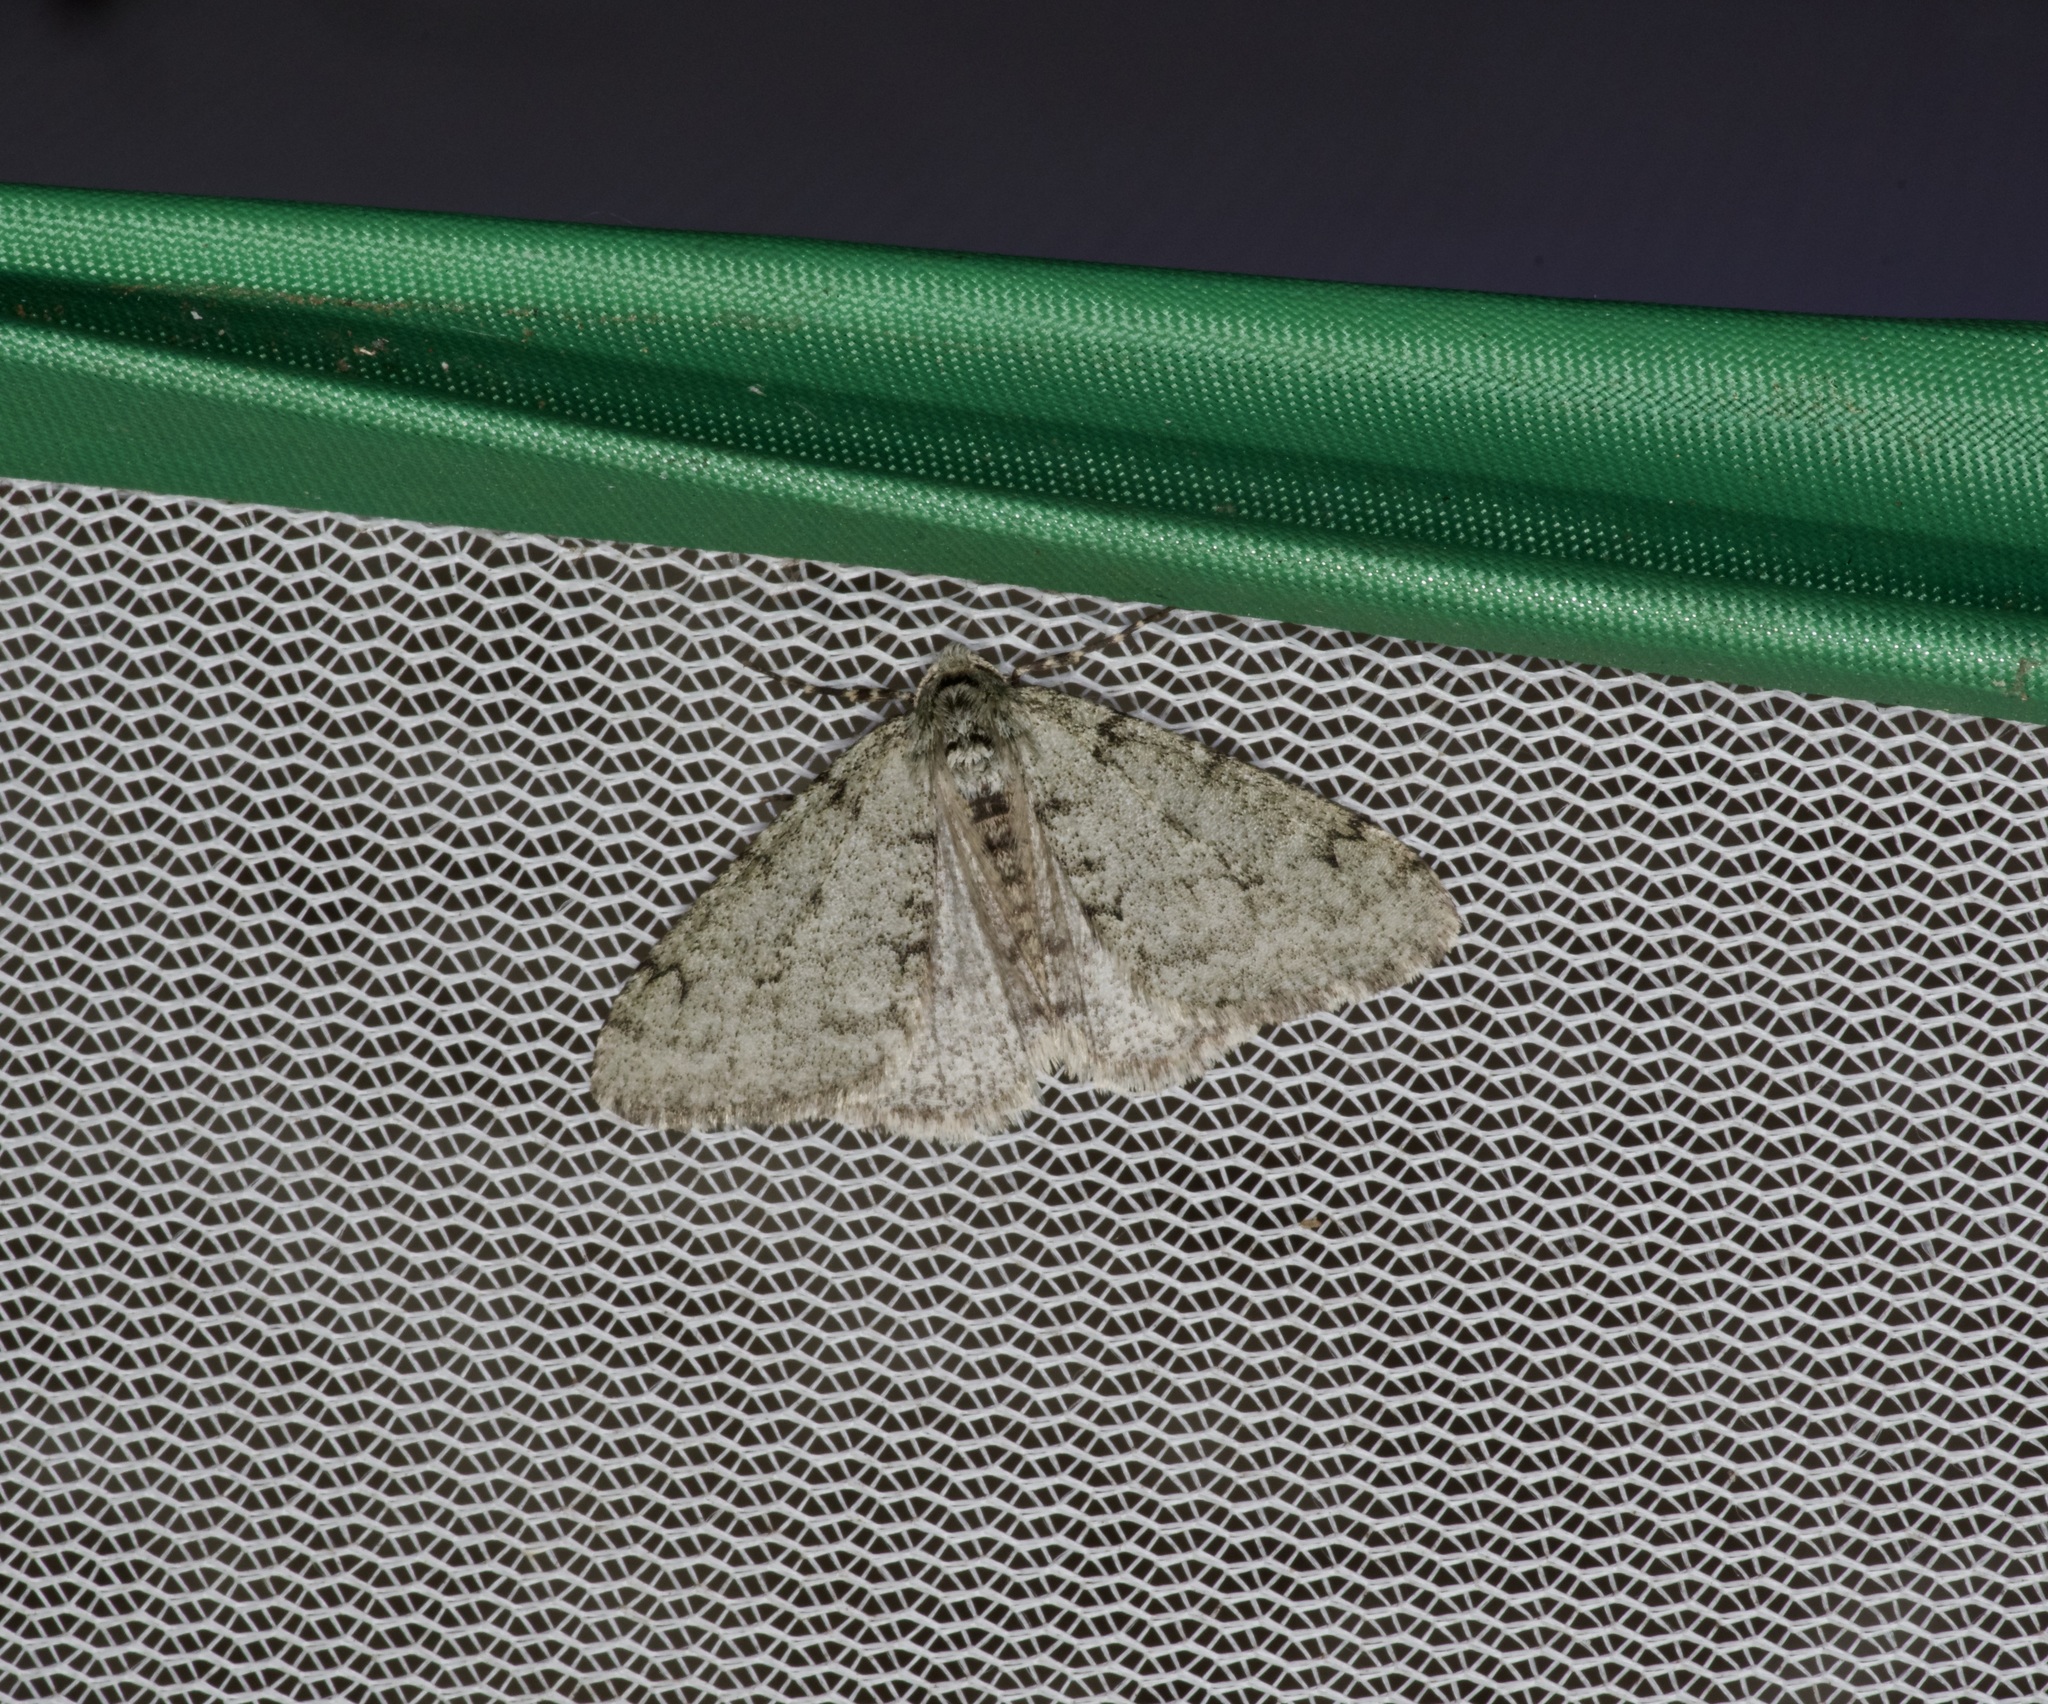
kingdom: Animalia
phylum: Arthropoda
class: Insecta
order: Lepidoptera
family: Geometridae
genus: Phigalia
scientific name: Phigalia strigataria
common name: Small phigalia
